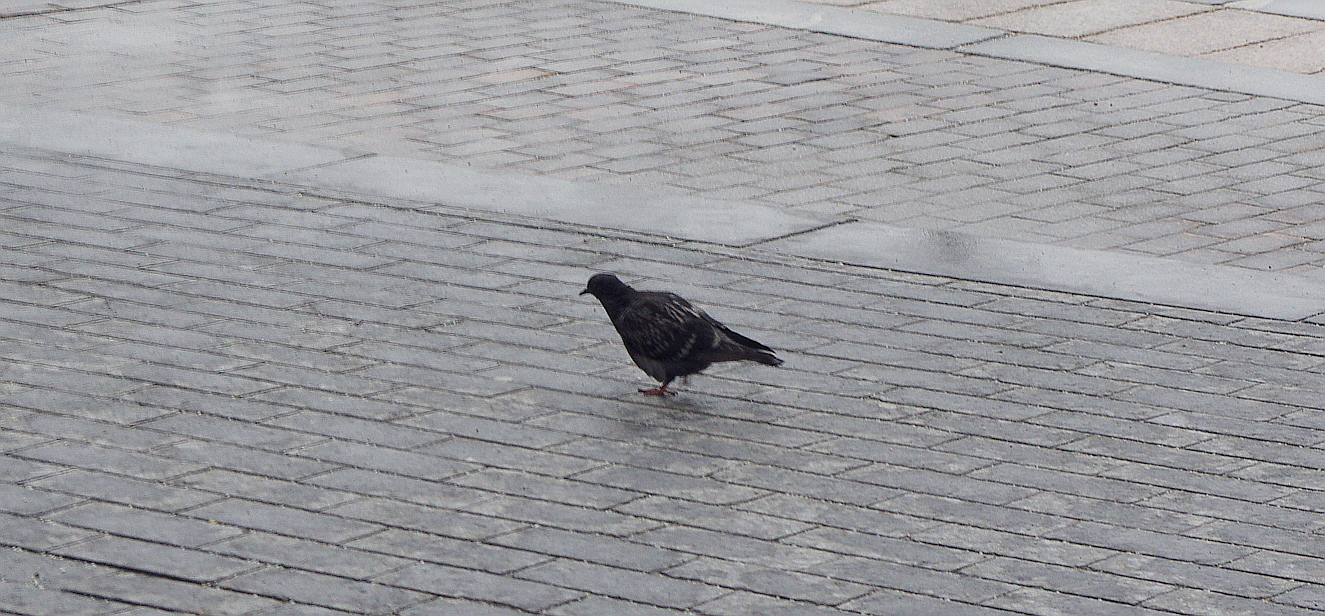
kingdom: Animalia
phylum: Chordata
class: Aves
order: Columbiformes
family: Columbidae
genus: Columba
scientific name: Columba livia
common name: Rock pigeon
